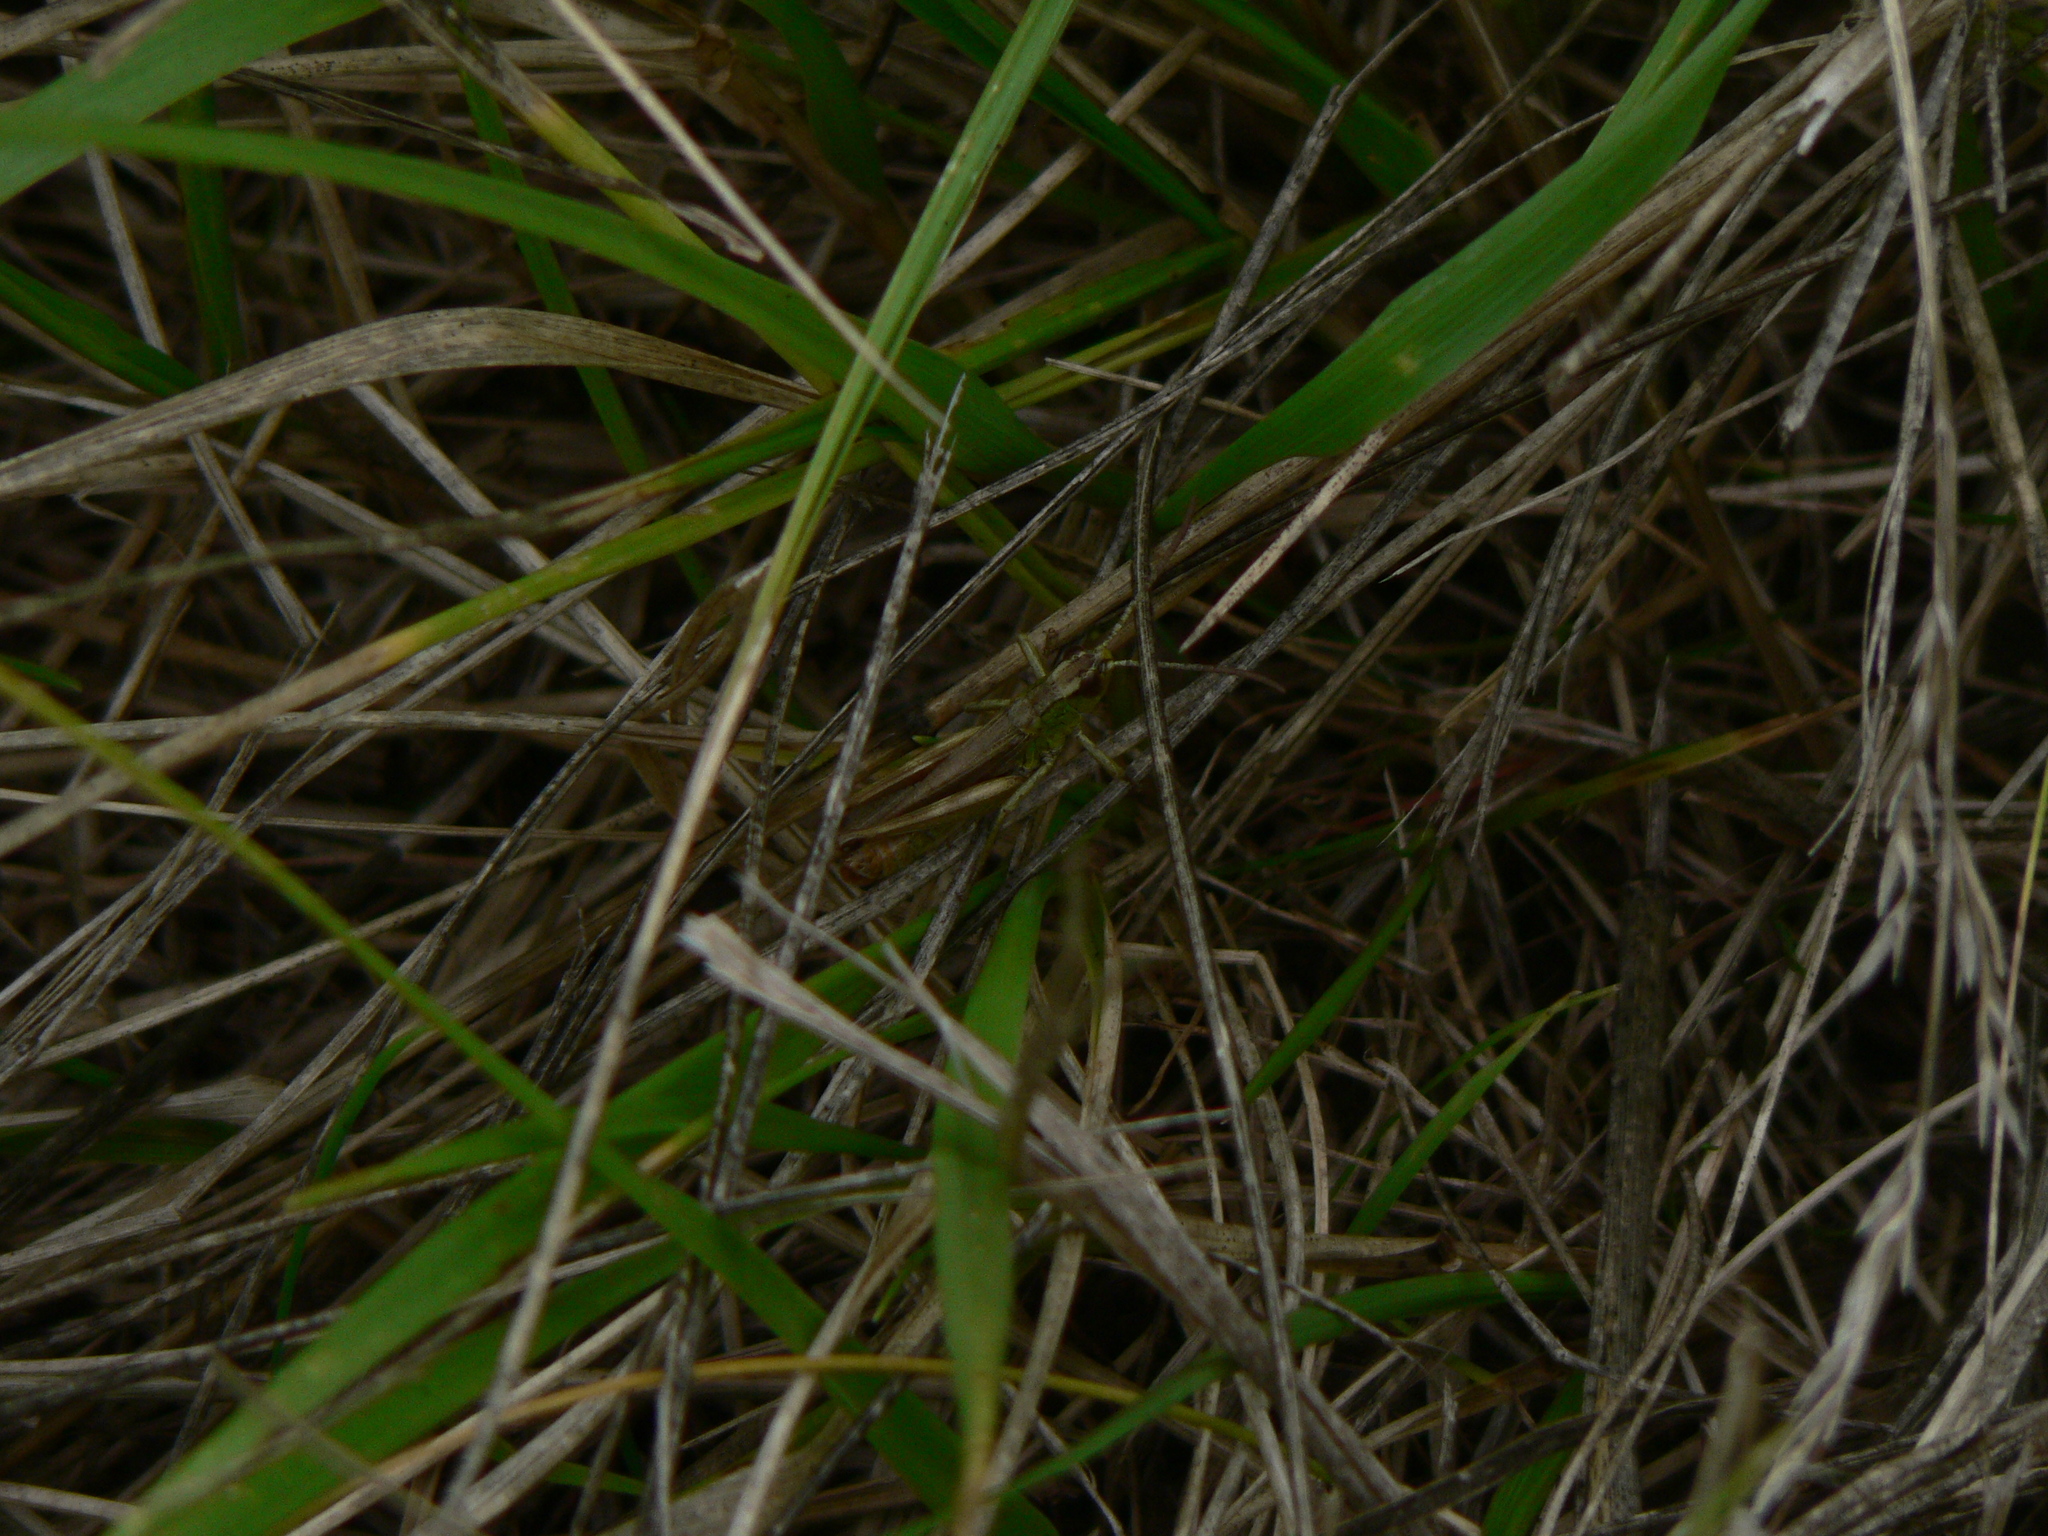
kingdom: Animalia
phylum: Arthropoda
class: Insecta
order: Orthoptera
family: Acrididae
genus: Pseudochorthippus
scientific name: Pseudochorthippus parallelus
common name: Meadow grasshopper
